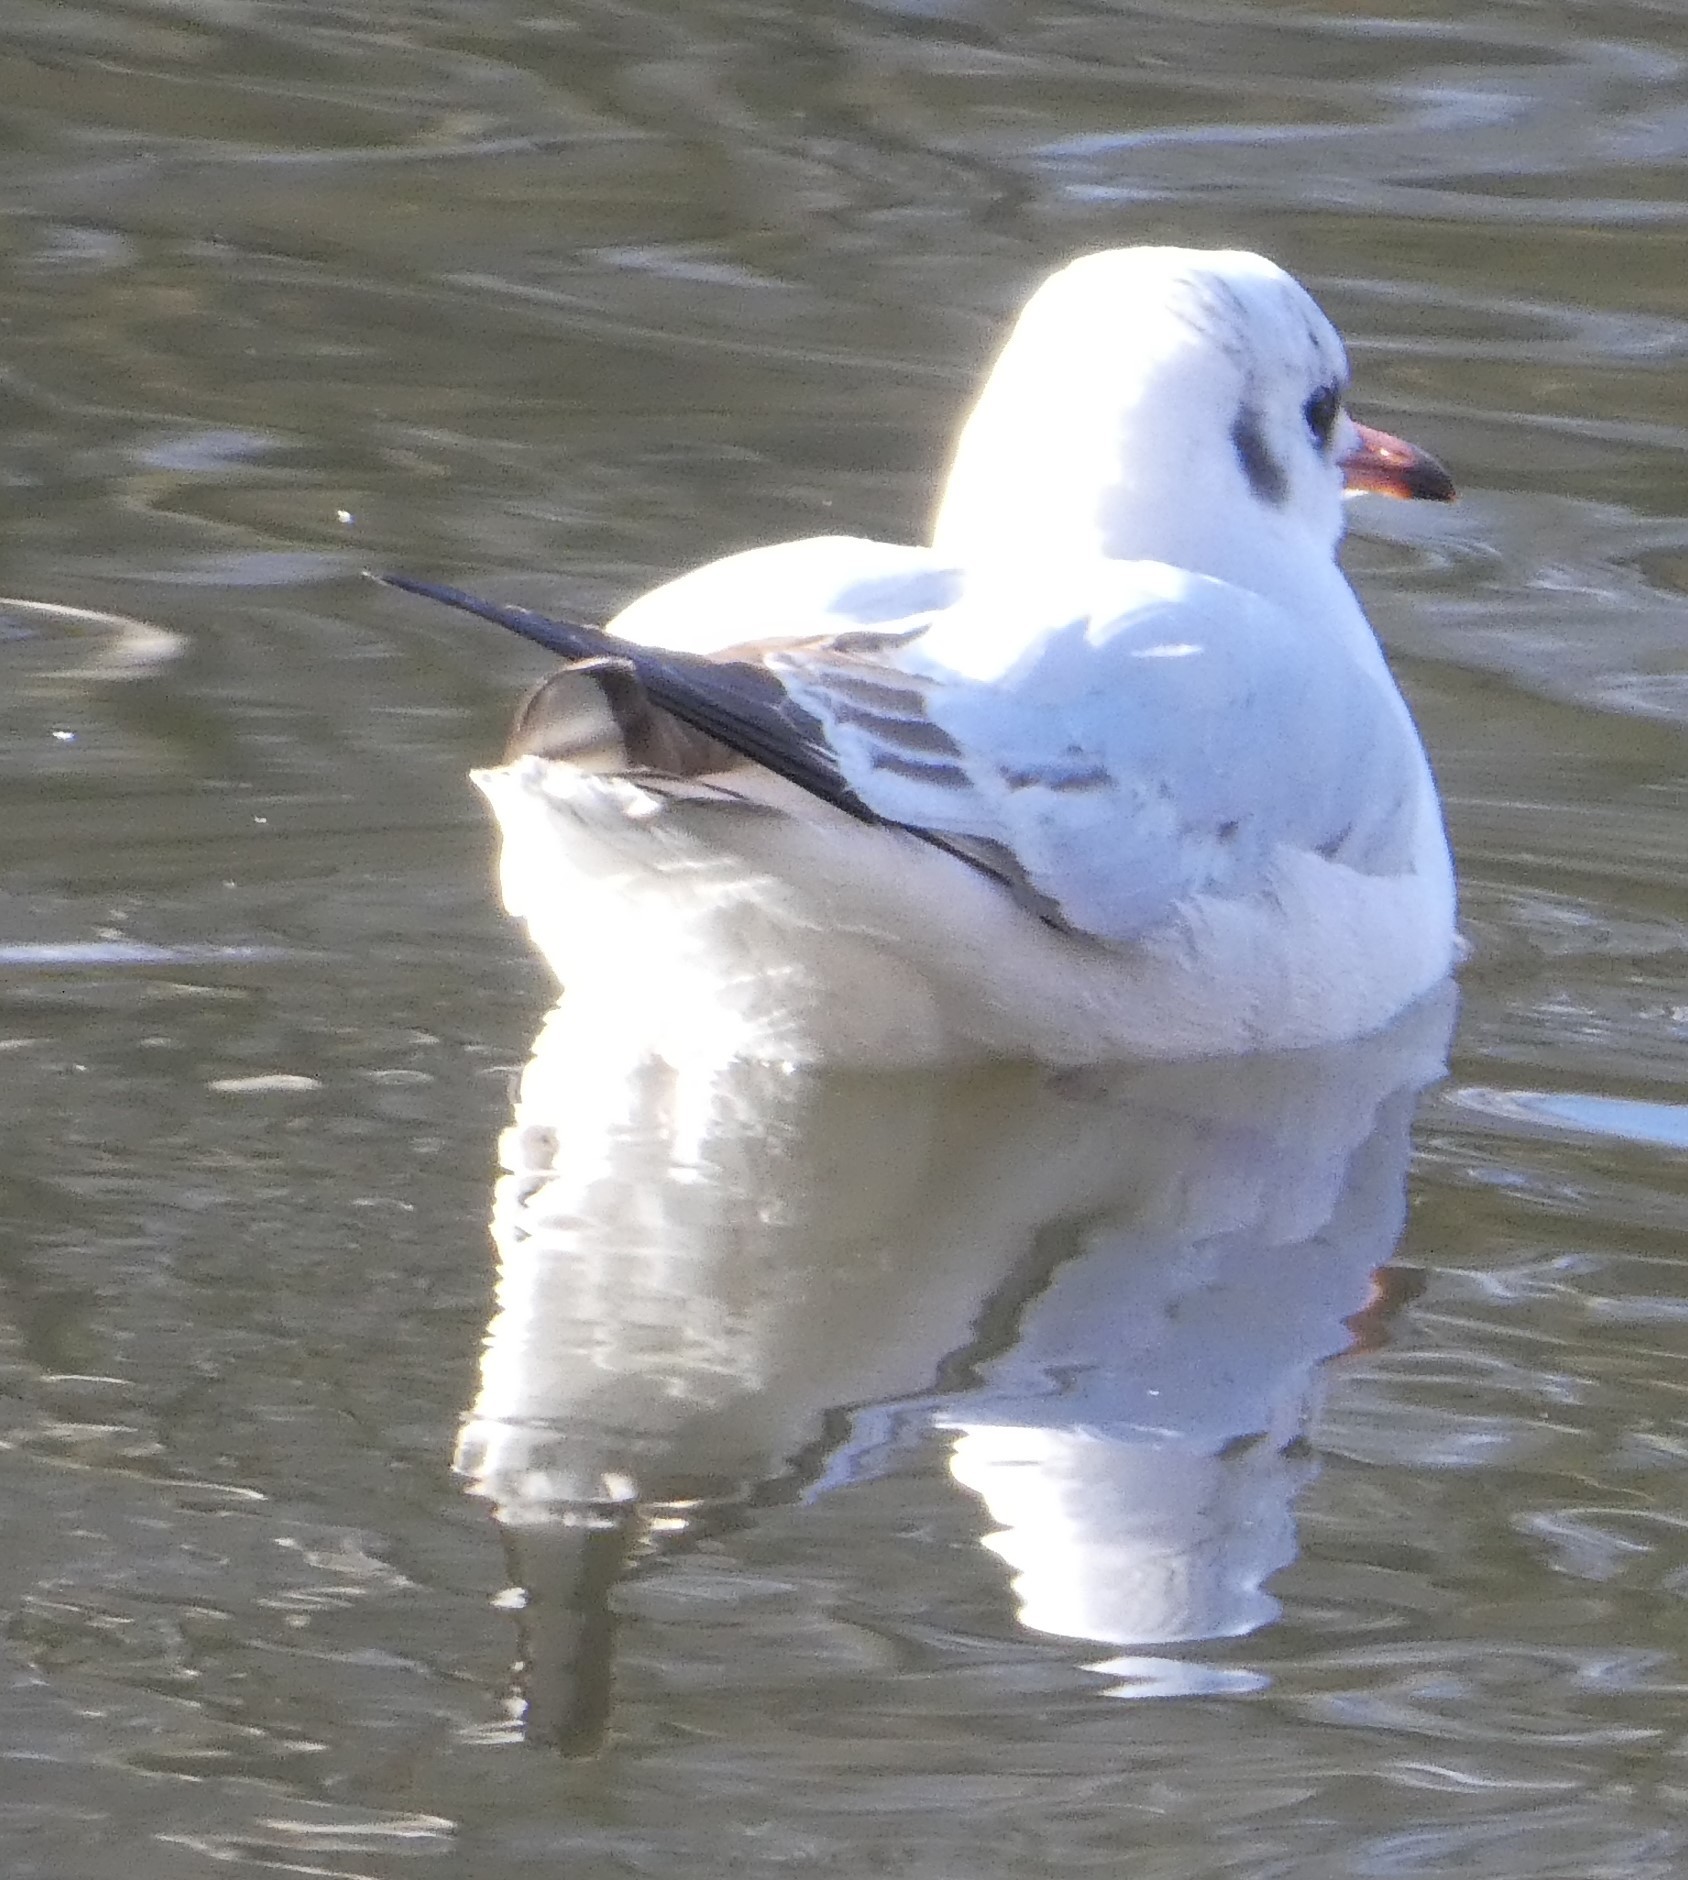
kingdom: Animalia
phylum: Chordata
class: Aves
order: Charadriiformes
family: Laridae
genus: Chroicocephalus
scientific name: Chroicocephalus ridibundus
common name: Black-headed gull
